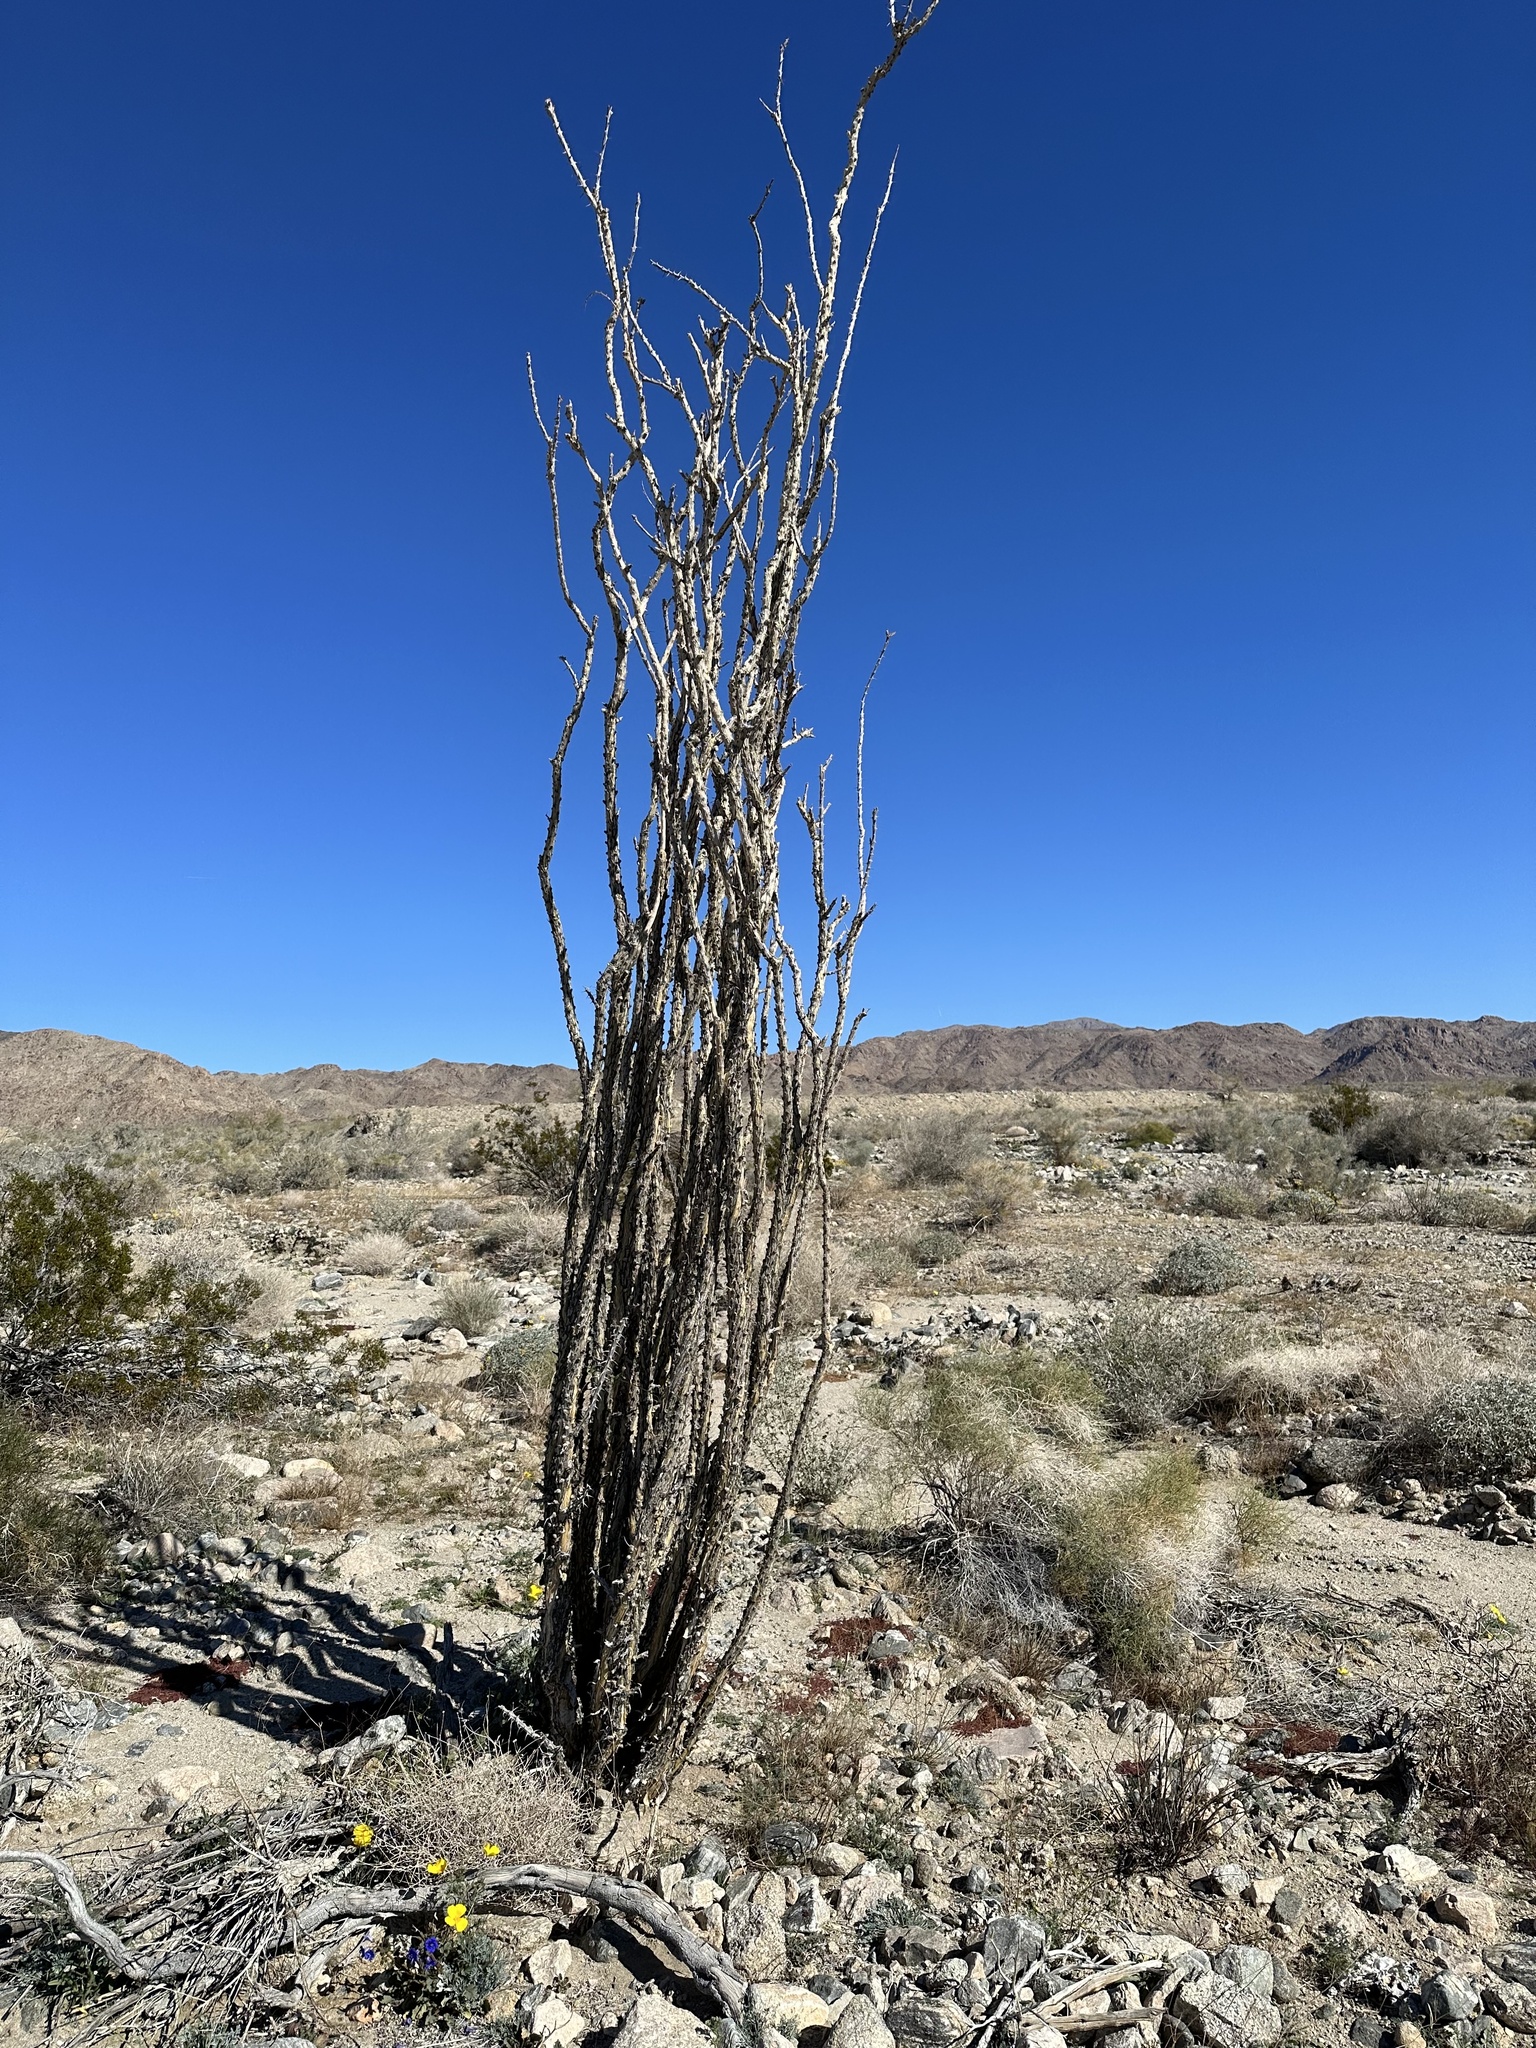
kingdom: Plantae
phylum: Tracheophyta
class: Magnoliopsida
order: Ericales
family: Fouquieriaceae
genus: Fouquieria
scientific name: Fouquieria splendens
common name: Vine-cactus
